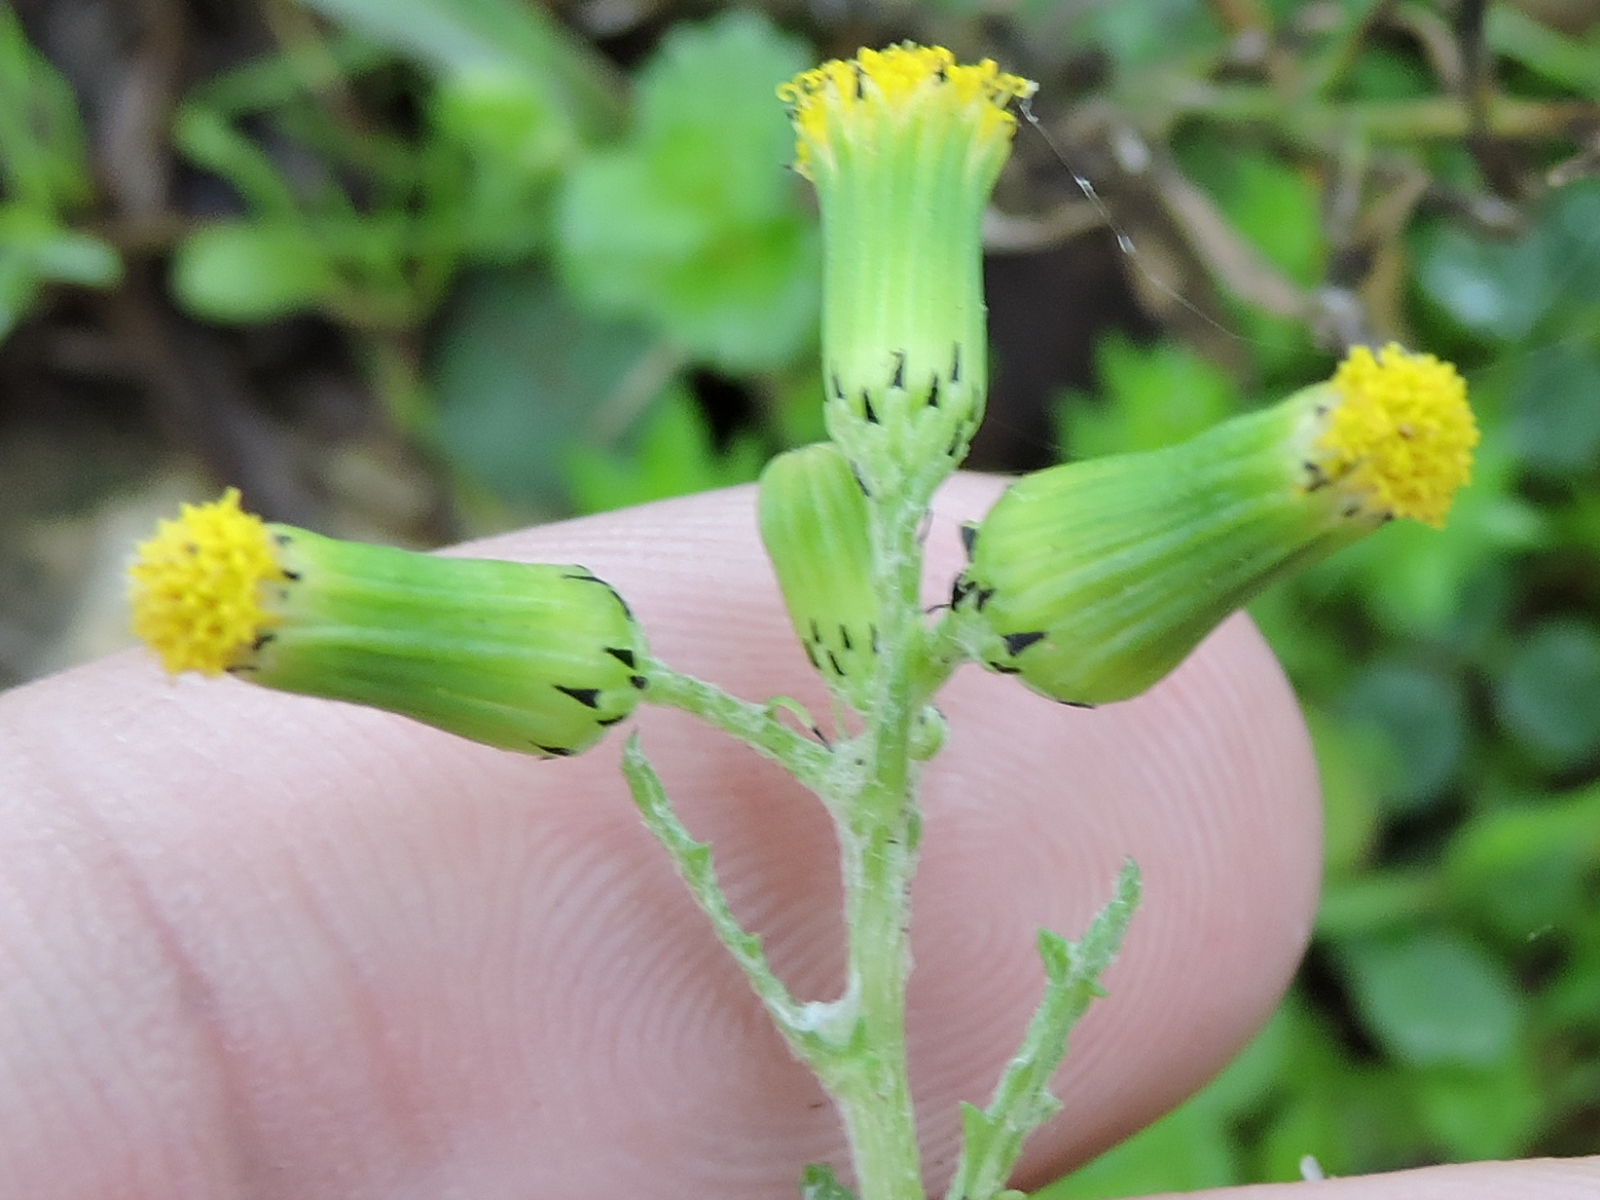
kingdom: Plantae
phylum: Tracheophyta
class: Magnoliopsida
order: Asterales
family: Asteraceae
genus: Senecio
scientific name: Senecio vulgaris
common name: Old-man-in-the-spring
